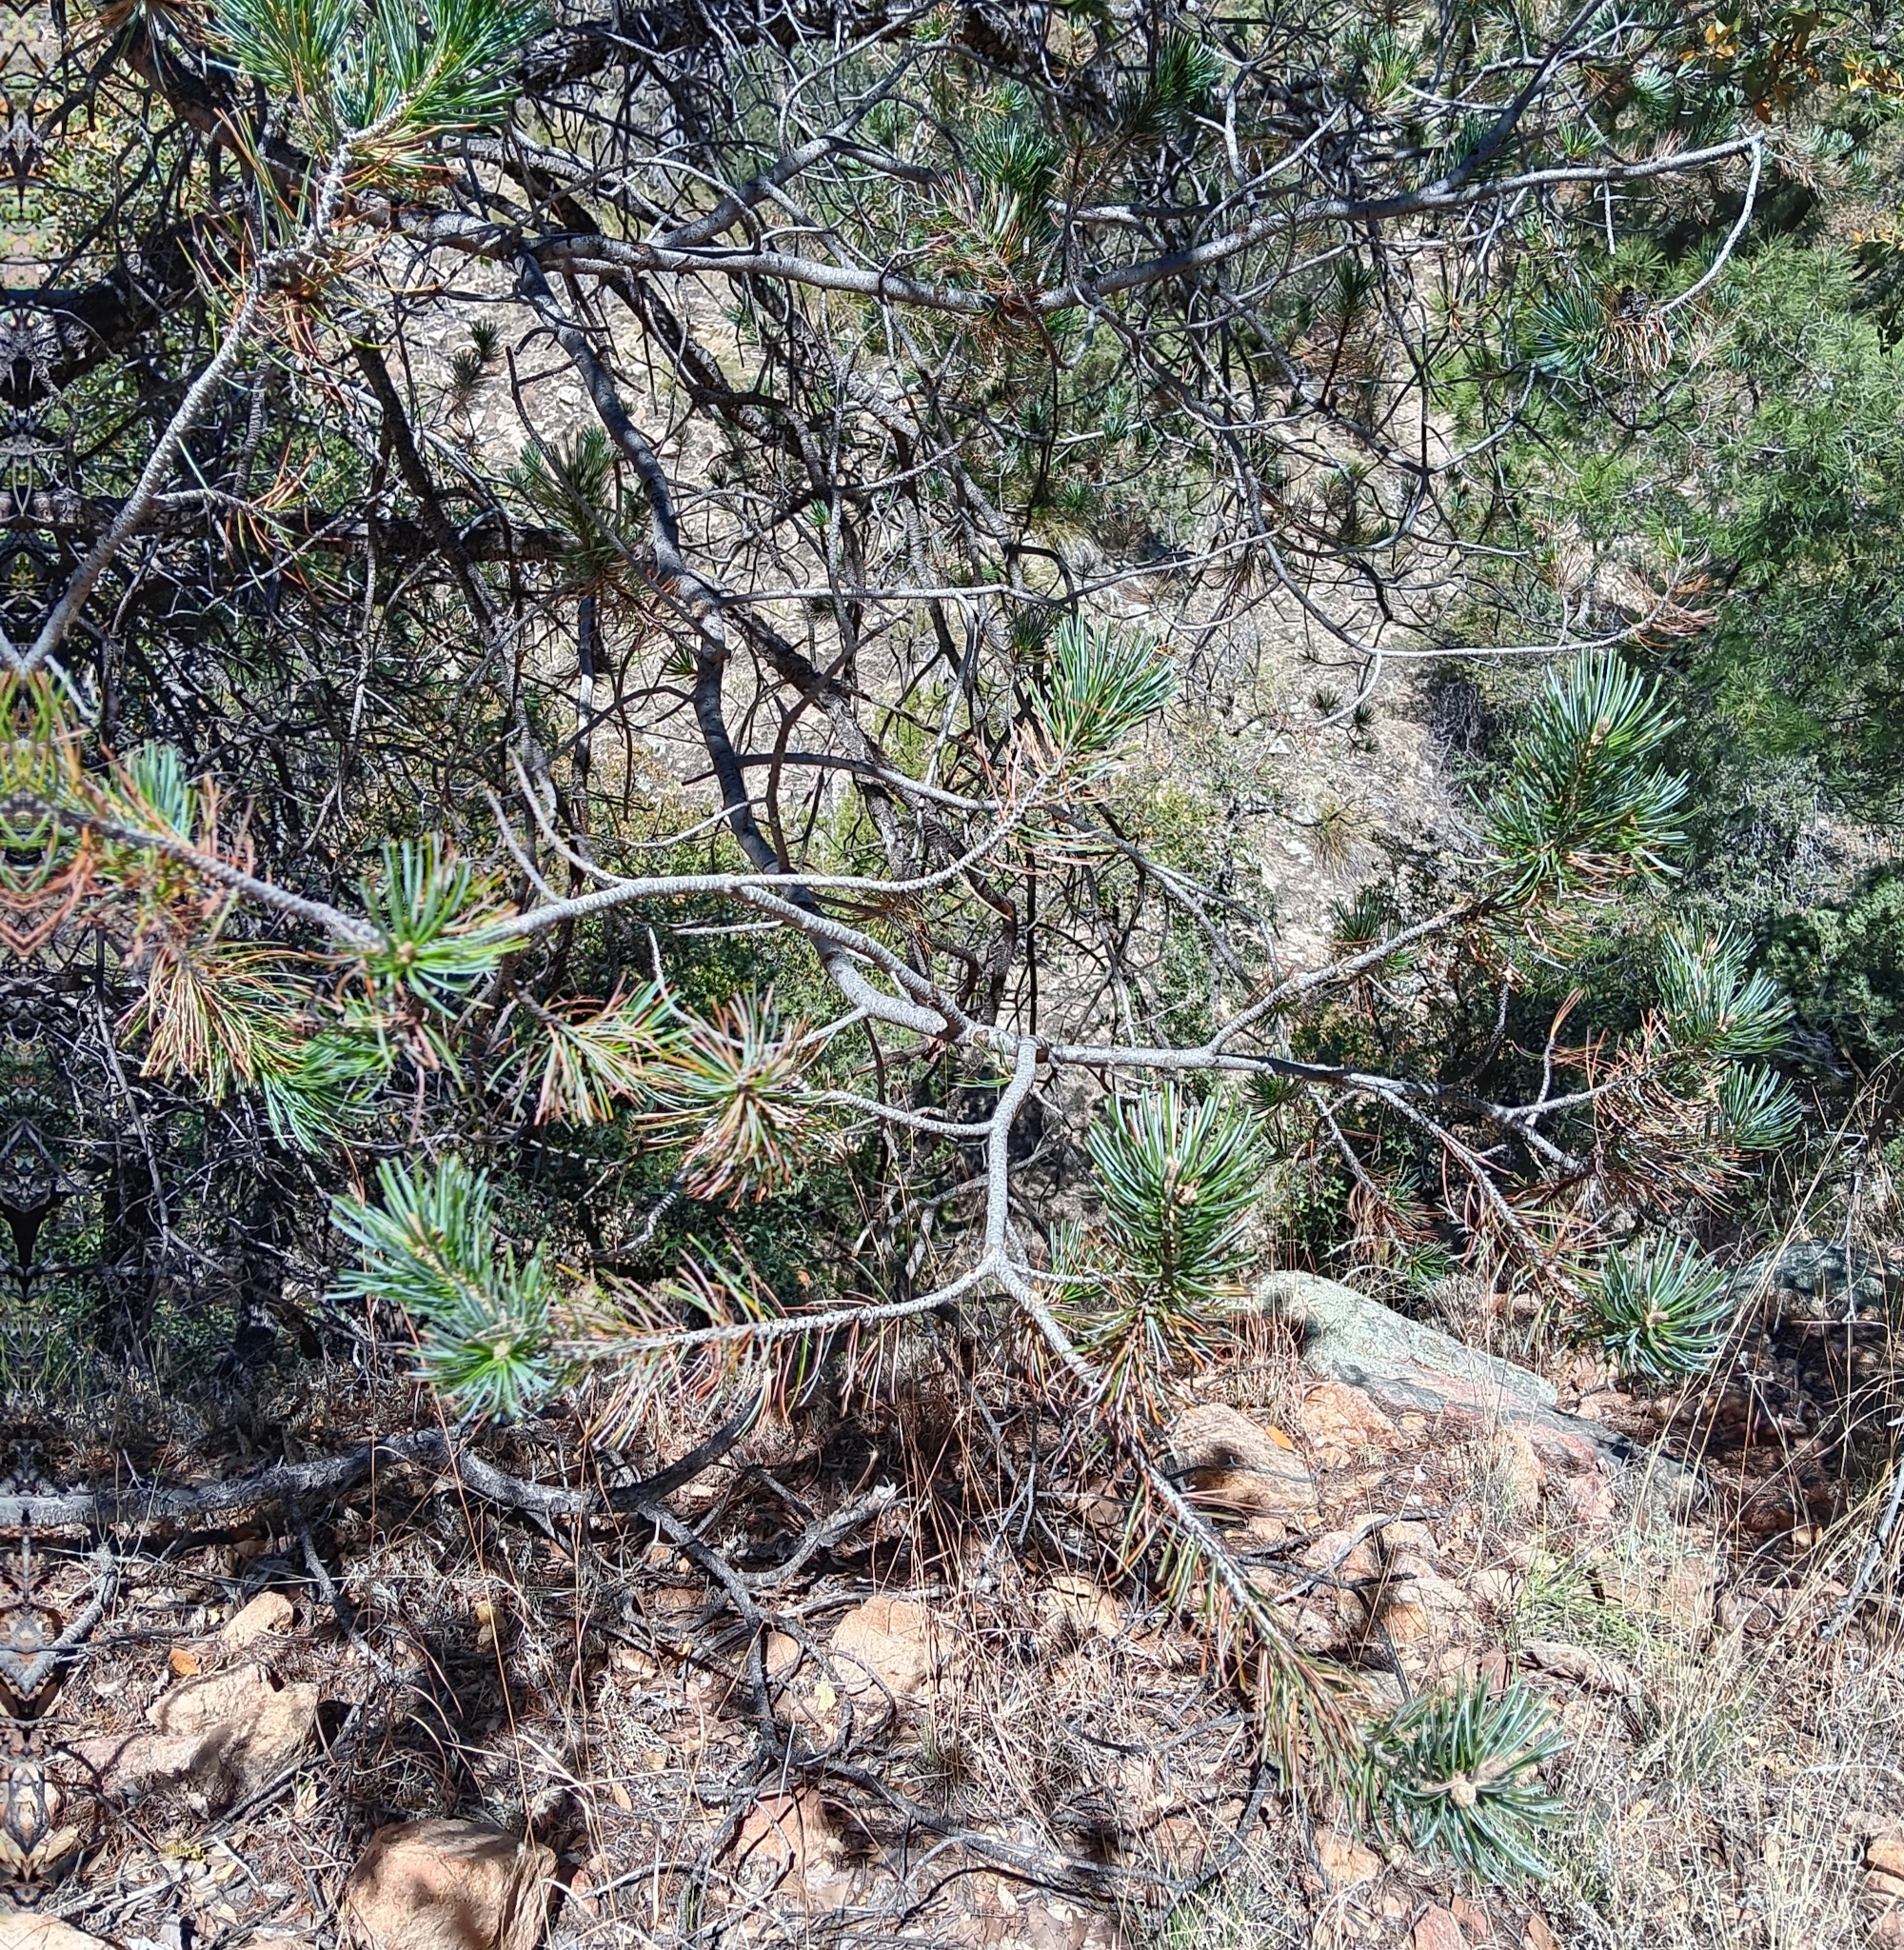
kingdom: Plantae
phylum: Tracheophyta
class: Pinopsida
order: Pinales
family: Pinaceae
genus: Pinus
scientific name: Pinus discolor
